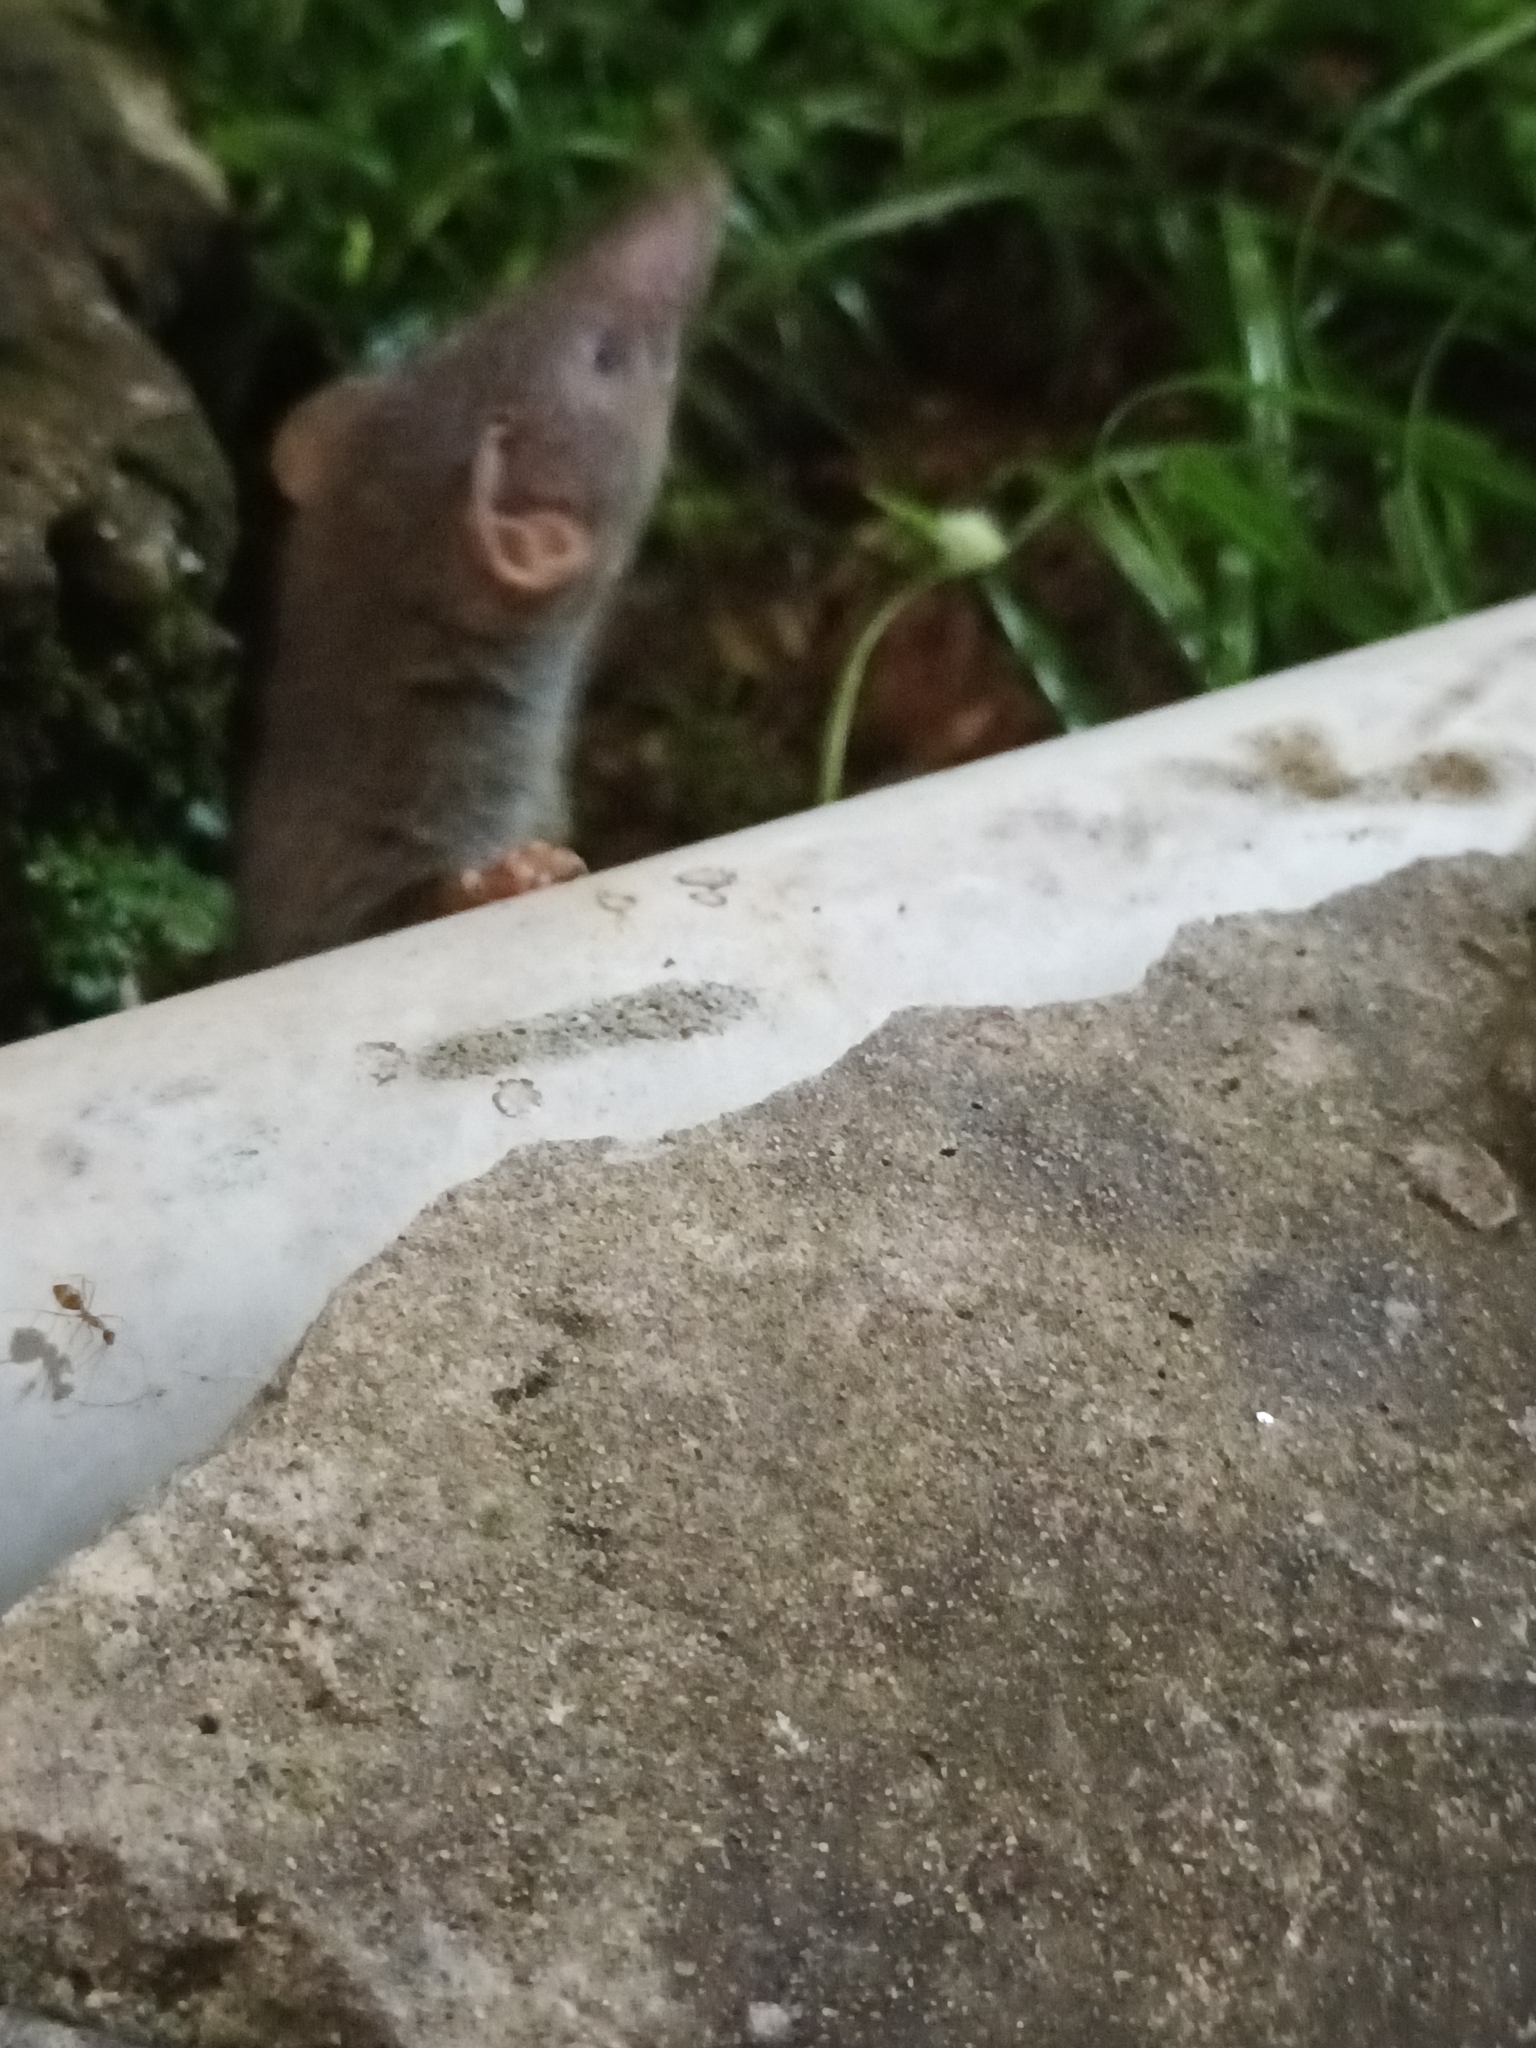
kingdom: Animalia
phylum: Chordata
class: Mammalia
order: Soricomorpha
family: Soricidae
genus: Suncus
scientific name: Suncus murinus
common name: Asian house shrew
